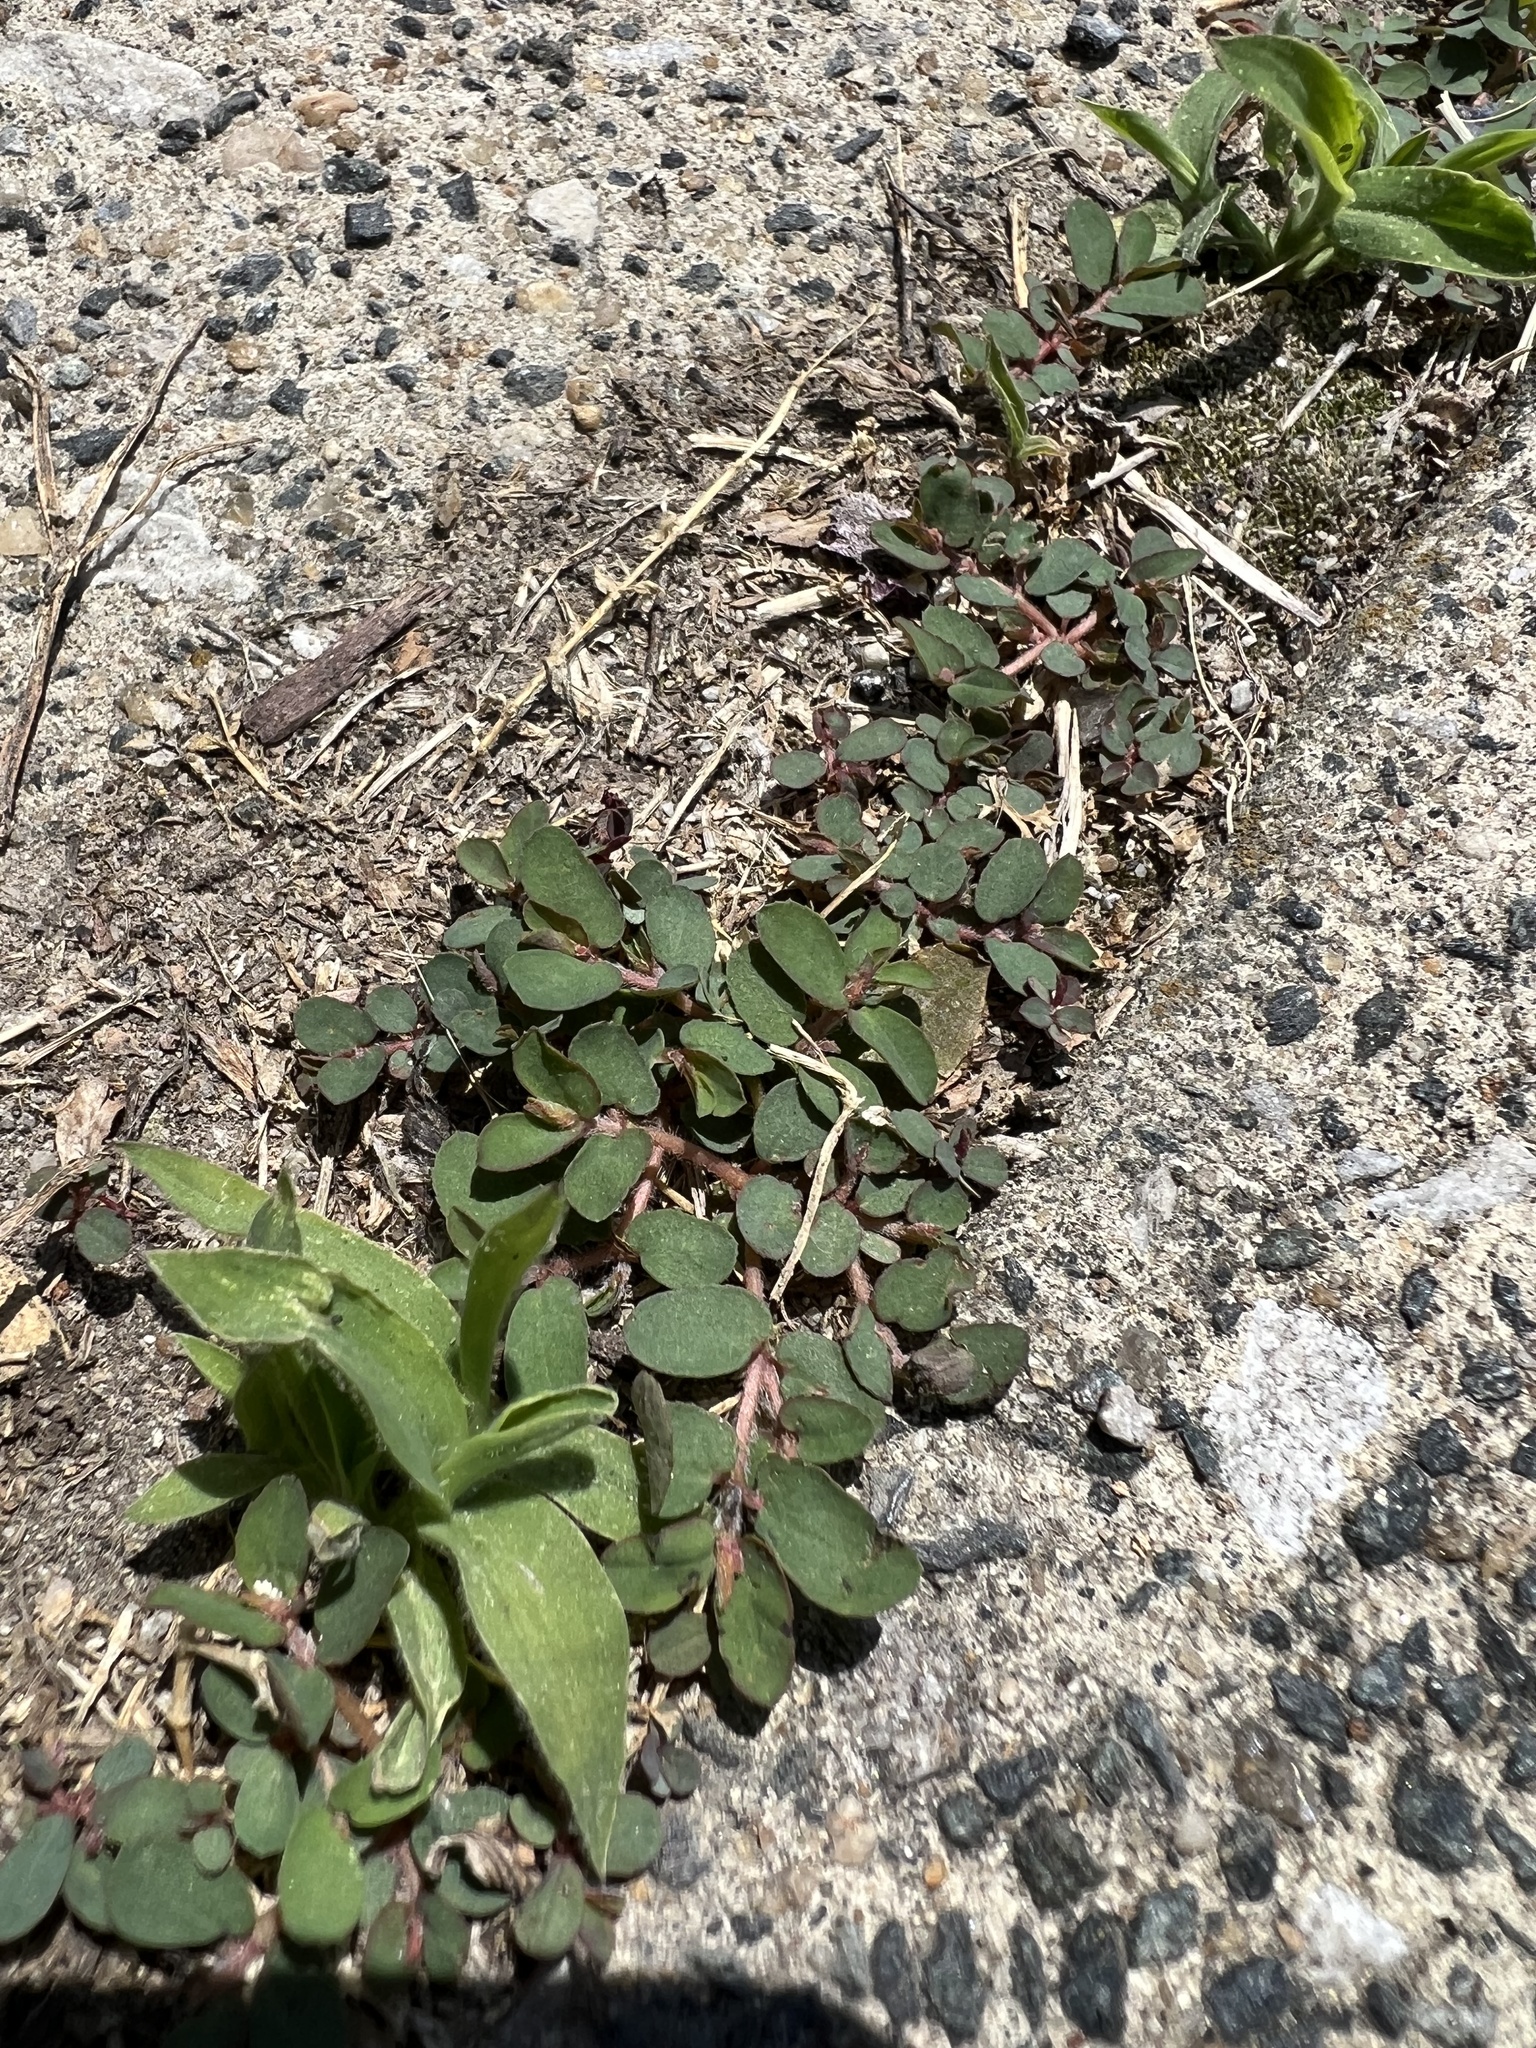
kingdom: Plantae
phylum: Tracheophyta
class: Magnoliopsida
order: Malpighiales
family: Euphorbiaceae
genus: Euphorbia
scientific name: Euphorbia maculata
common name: Spotted spurge
